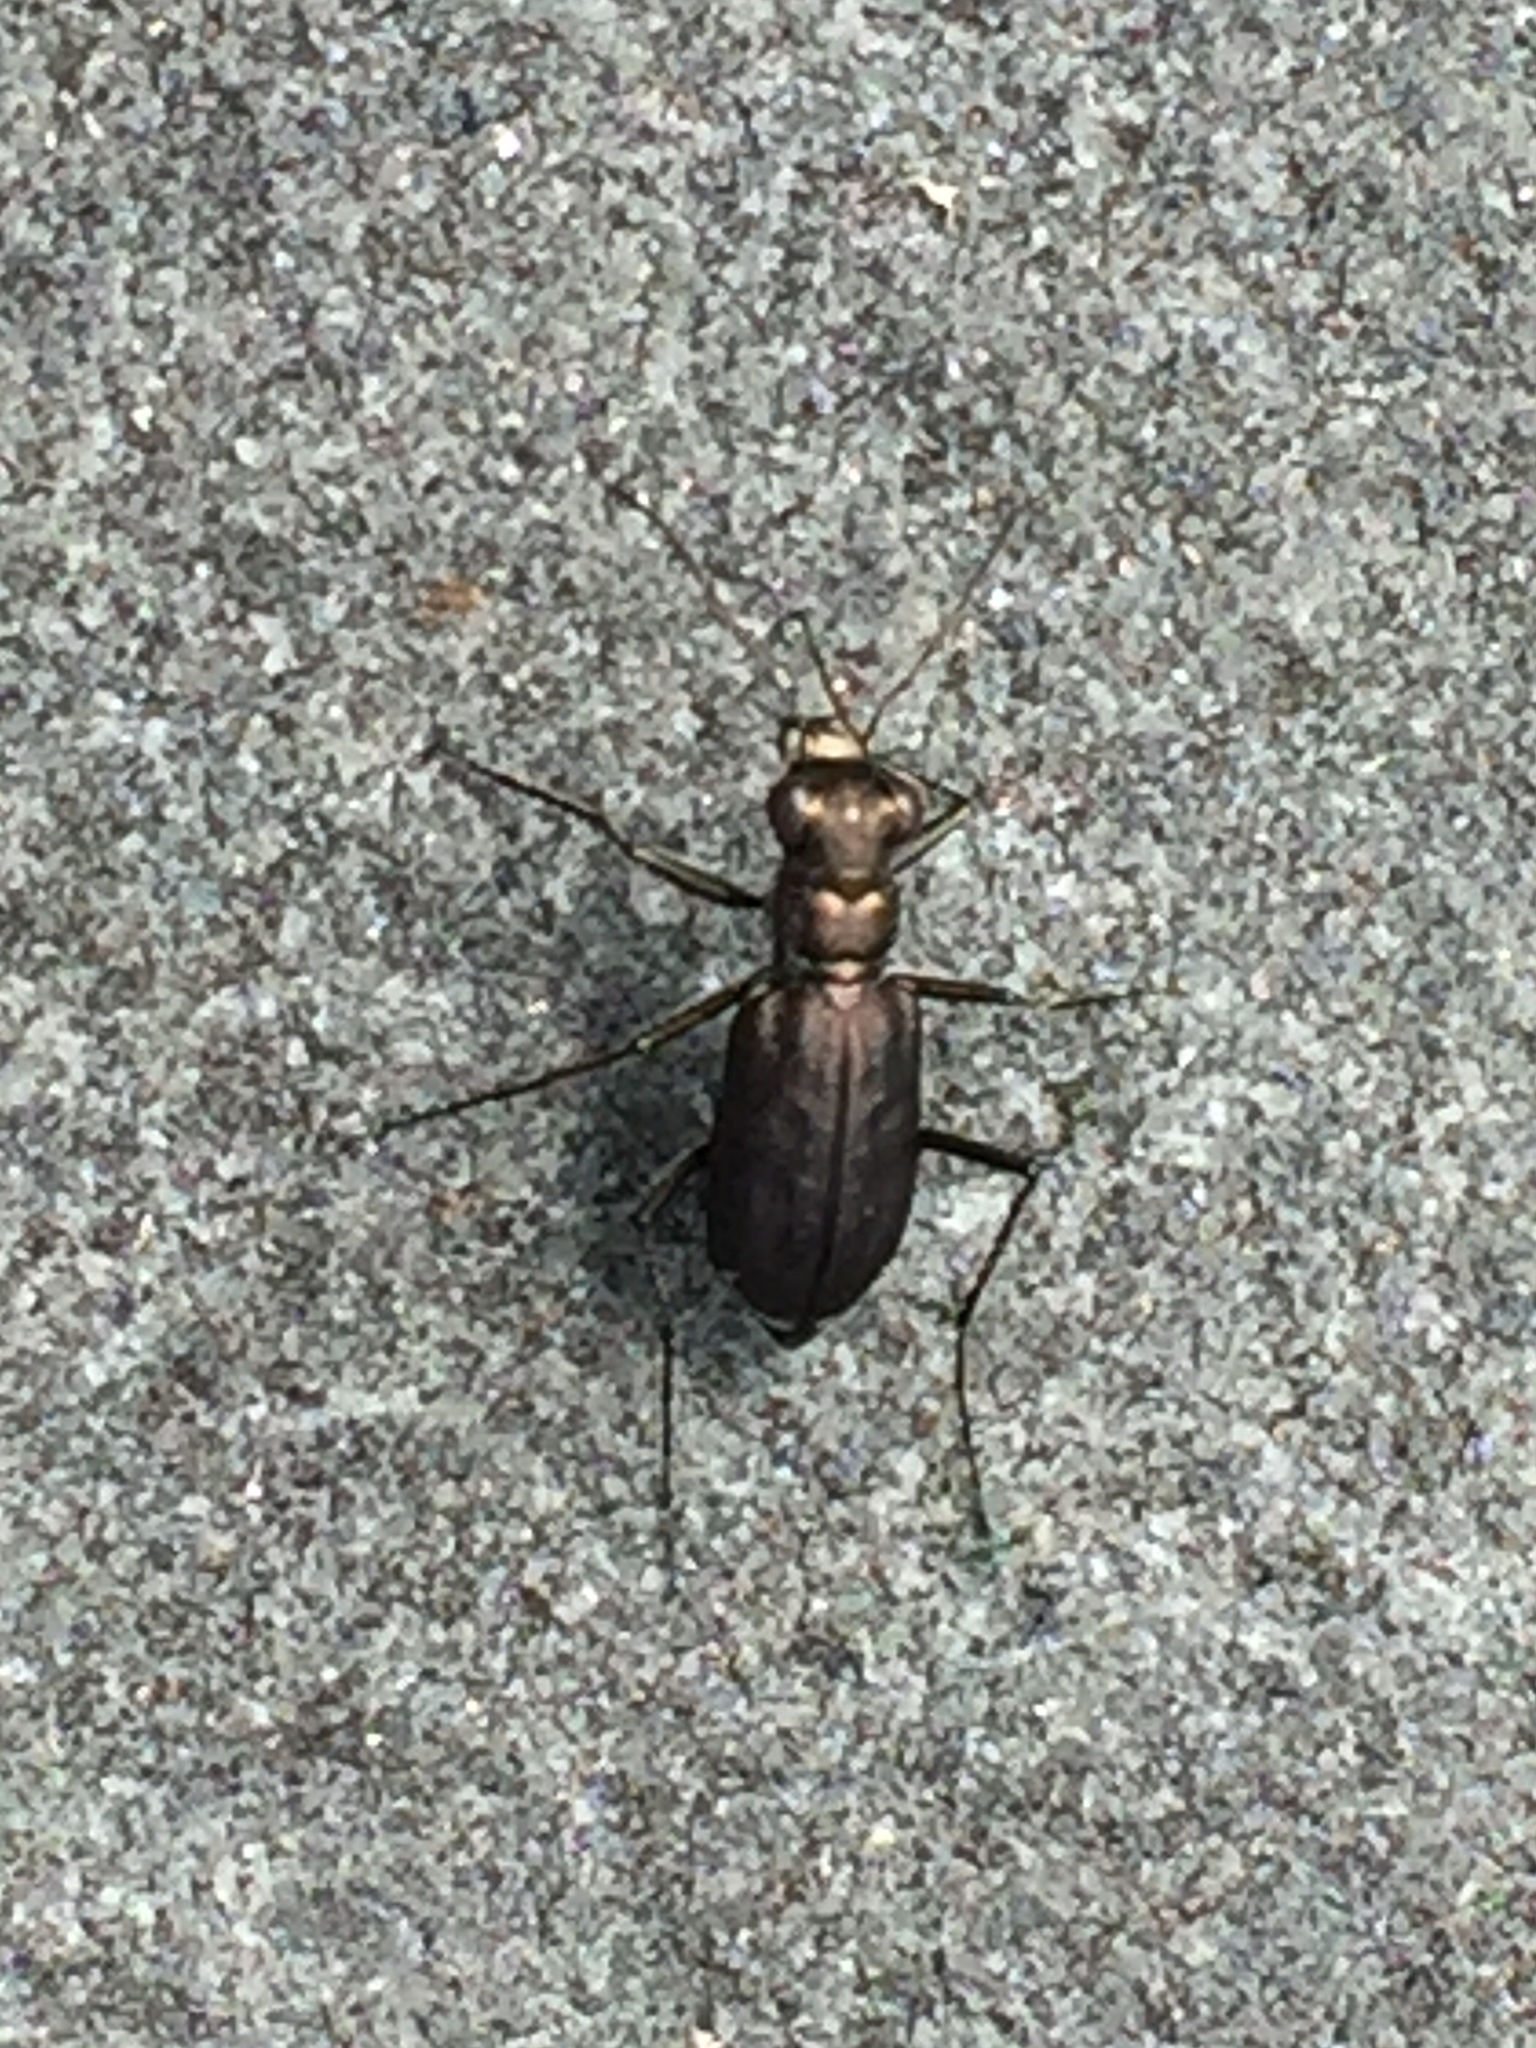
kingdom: Animalia
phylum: Arthropoda
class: Insecta
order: Coleoptera
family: Carabidae
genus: Cicindela
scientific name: Cicindela punctulata
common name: Punctured tiger beetle
